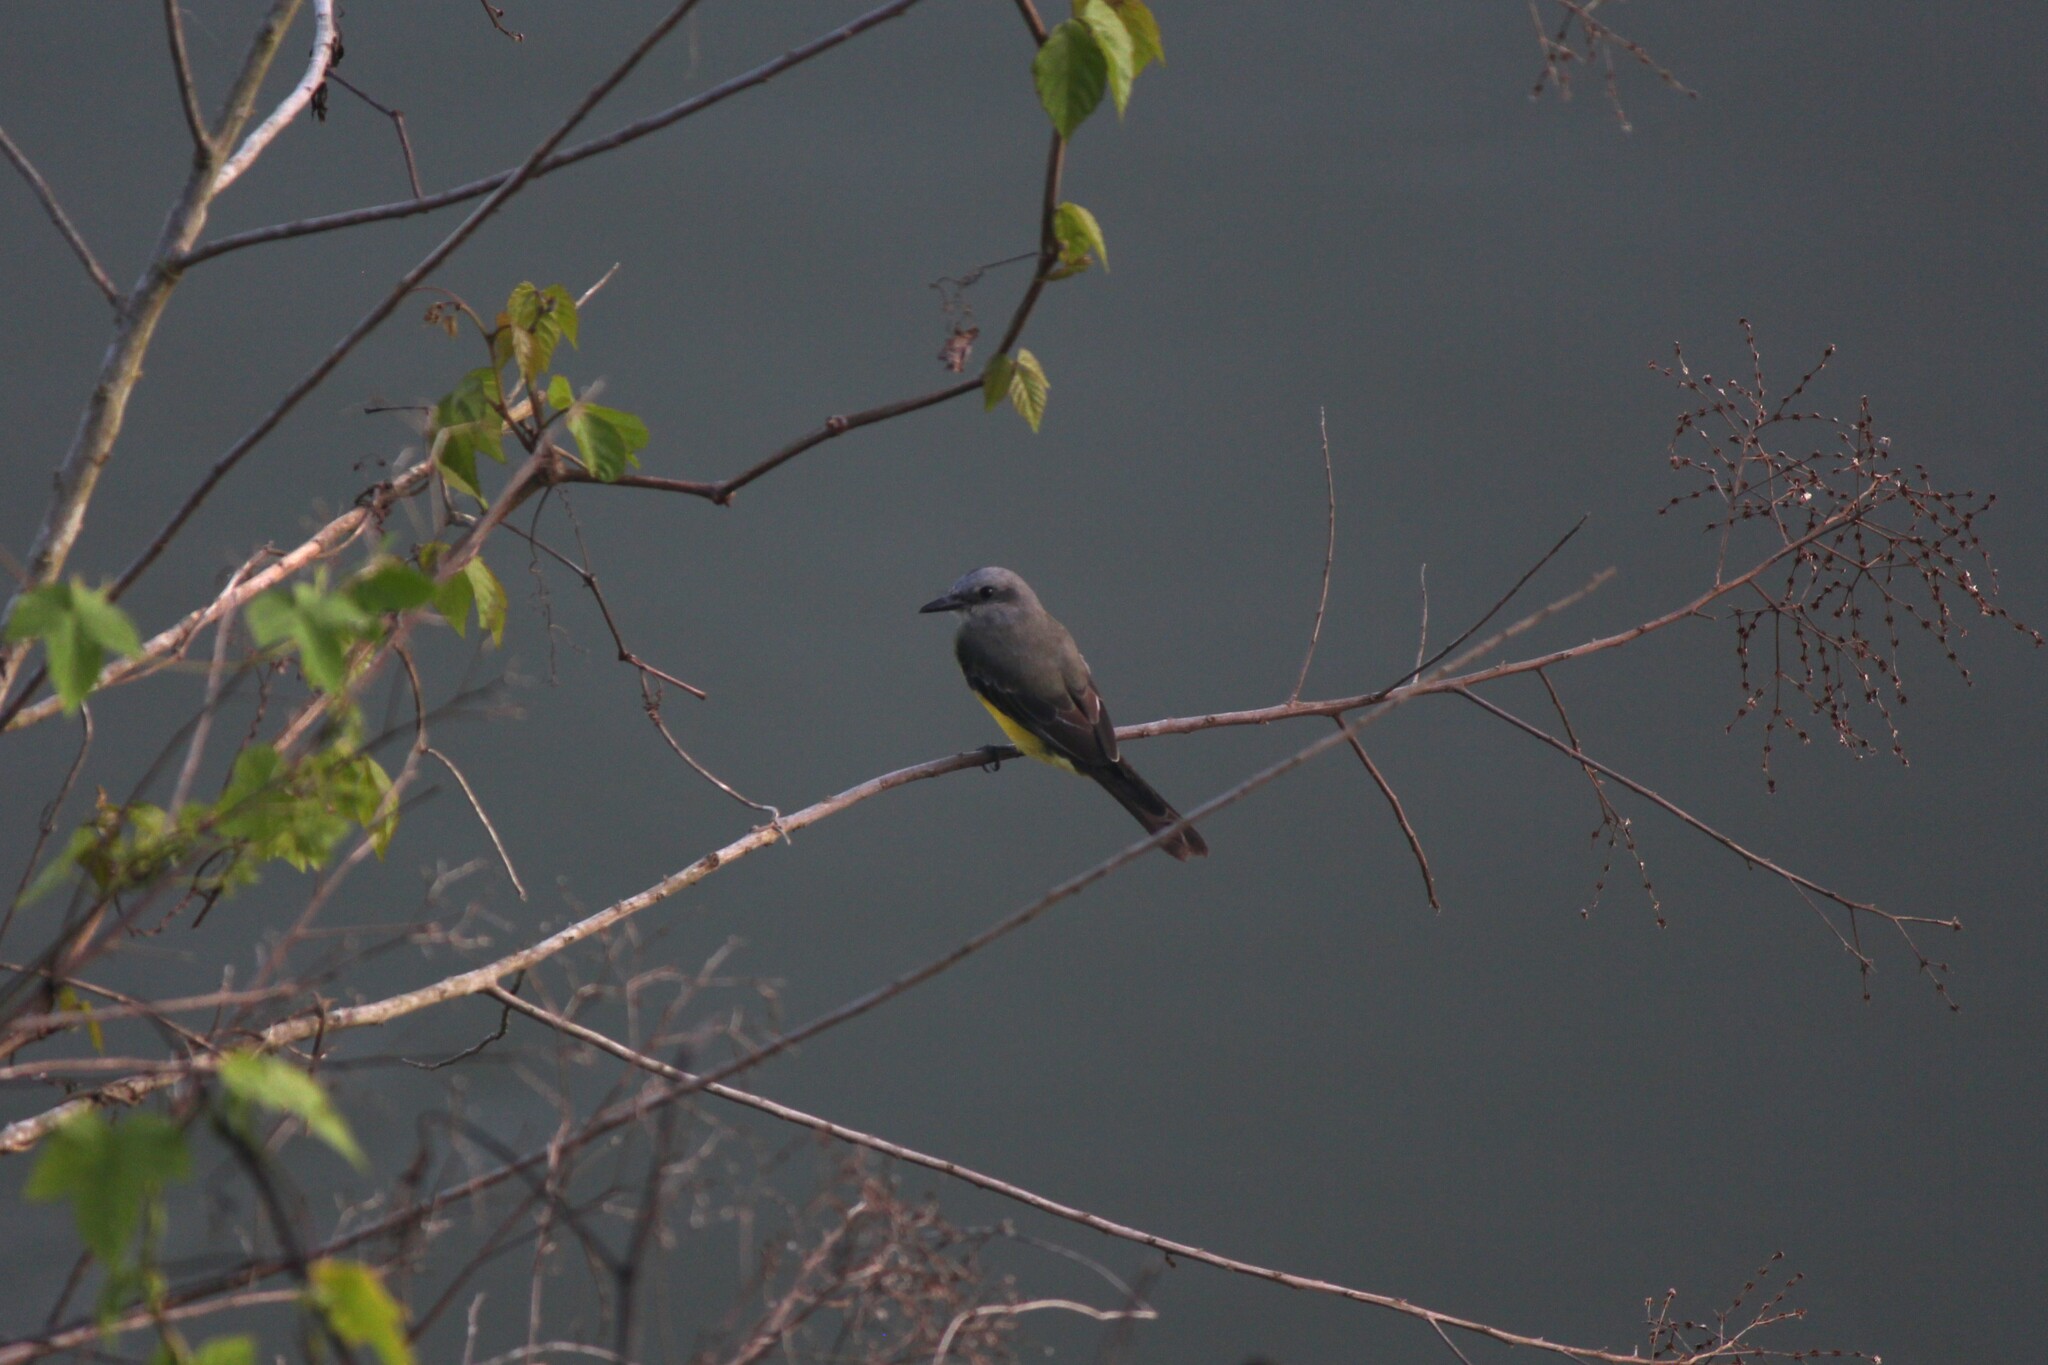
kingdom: Animalia
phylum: Chordata
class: Aves
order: Passeriformes
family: Tyrannidae
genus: Tyrannus
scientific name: Tyrannus melancholicus
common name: Tropical kingbird
